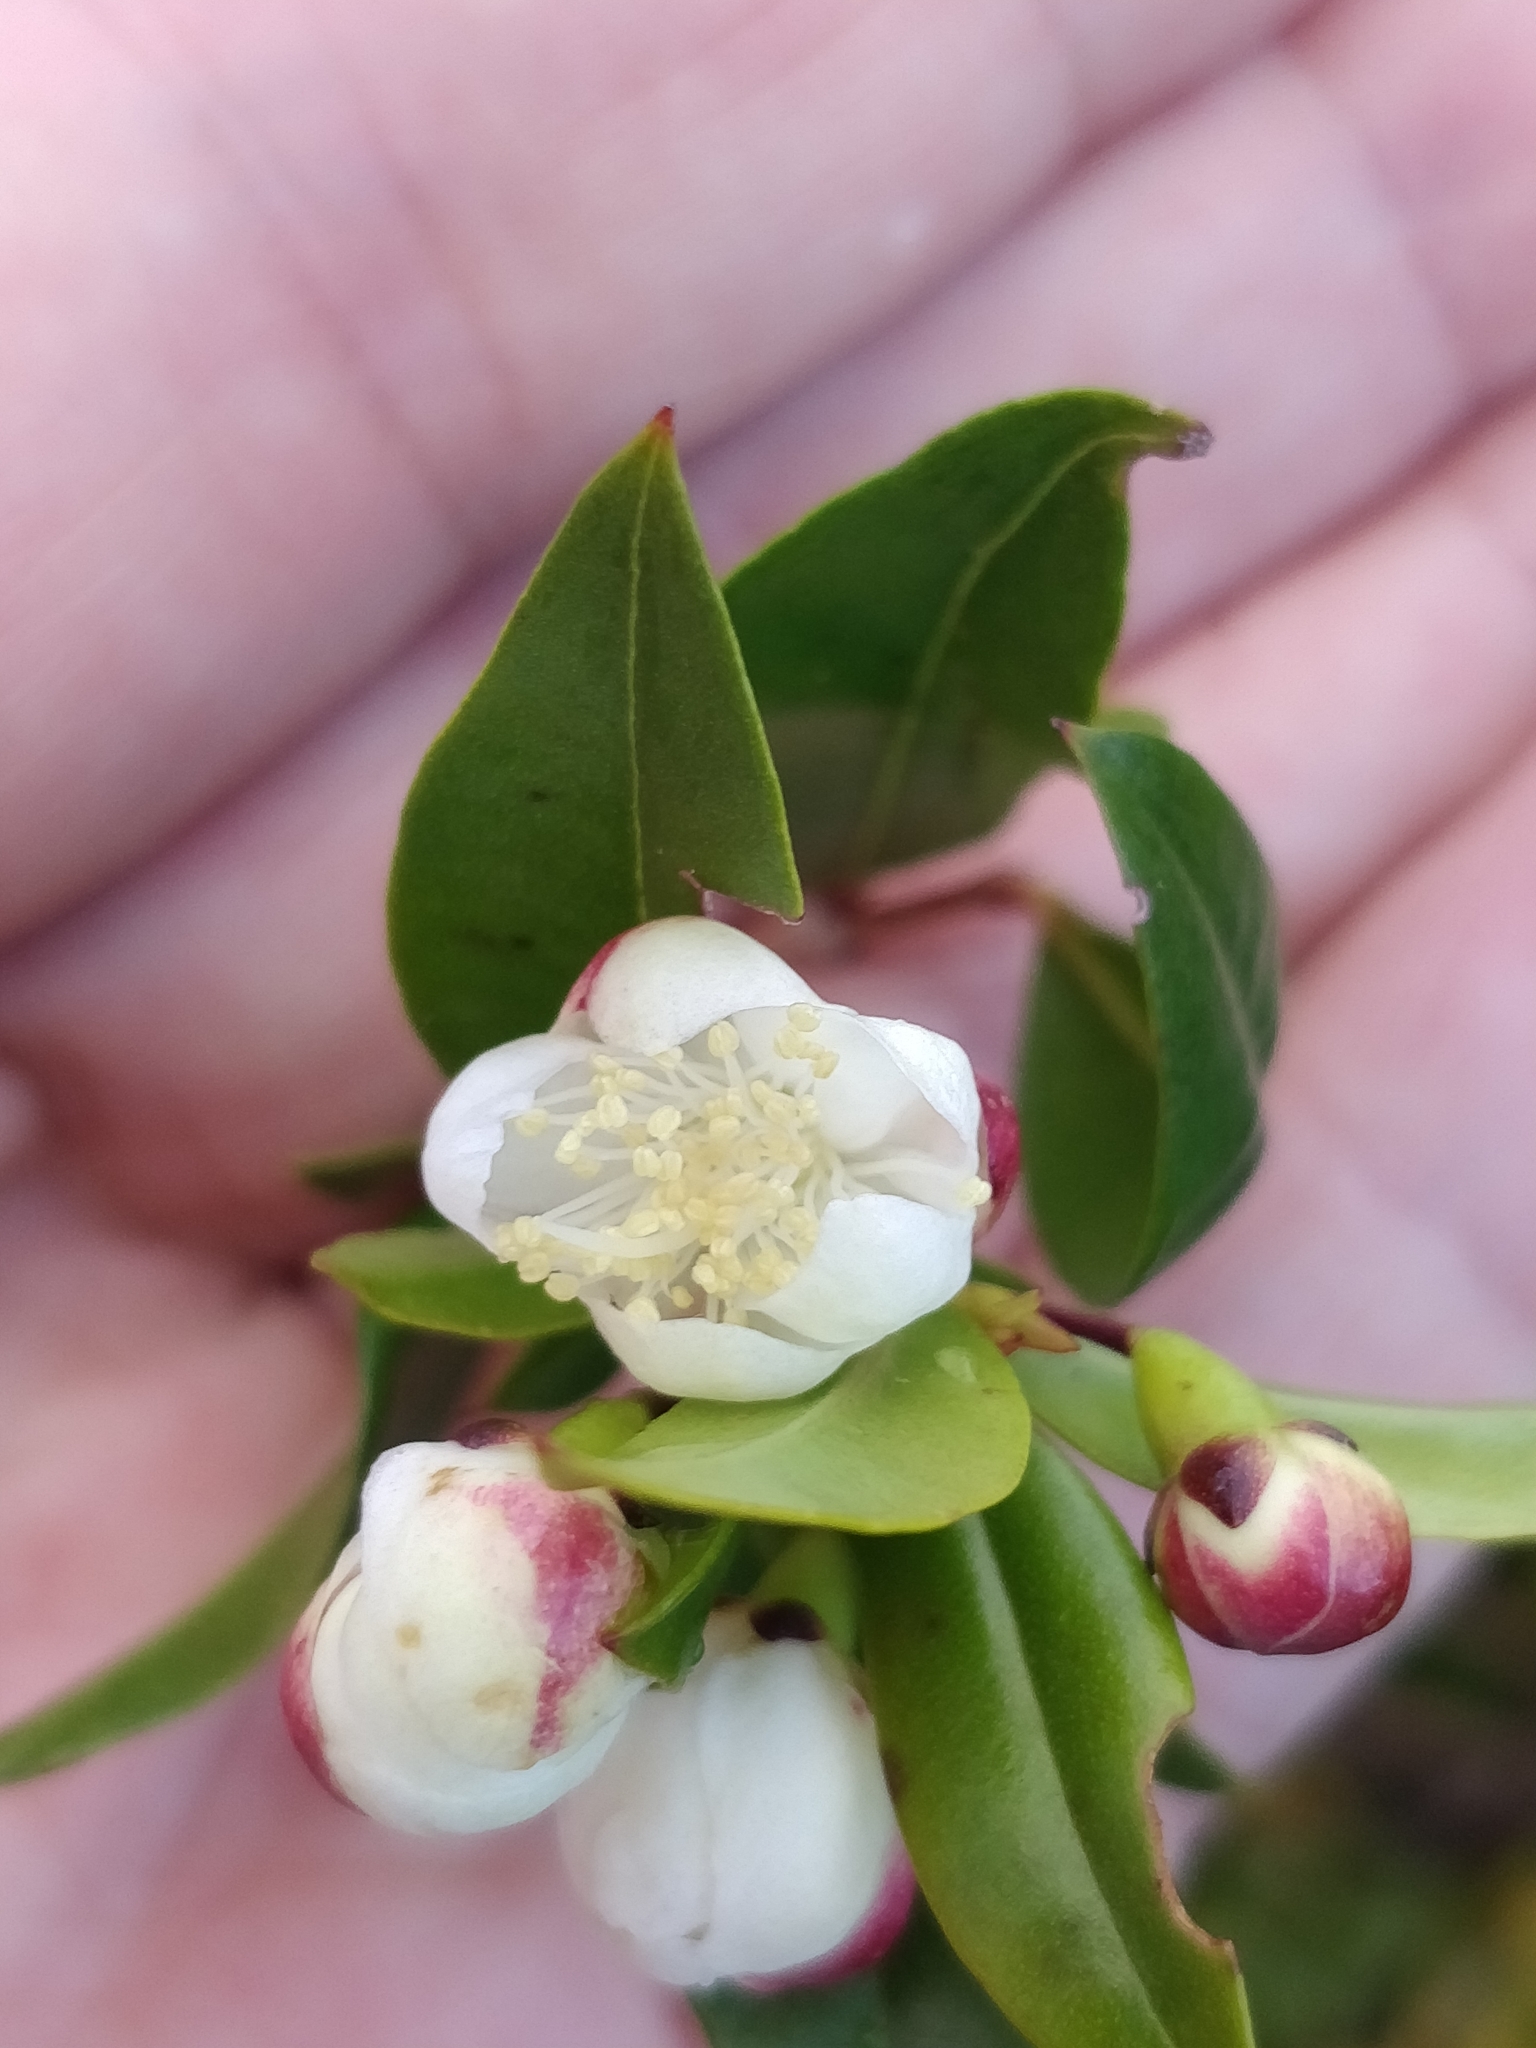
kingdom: Plantae
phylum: Tracheophyta
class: Magnoliopsida
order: Myrtales
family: Myrtaceae
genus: Myrtus
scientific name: Myrtus communis
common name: Myrtle
